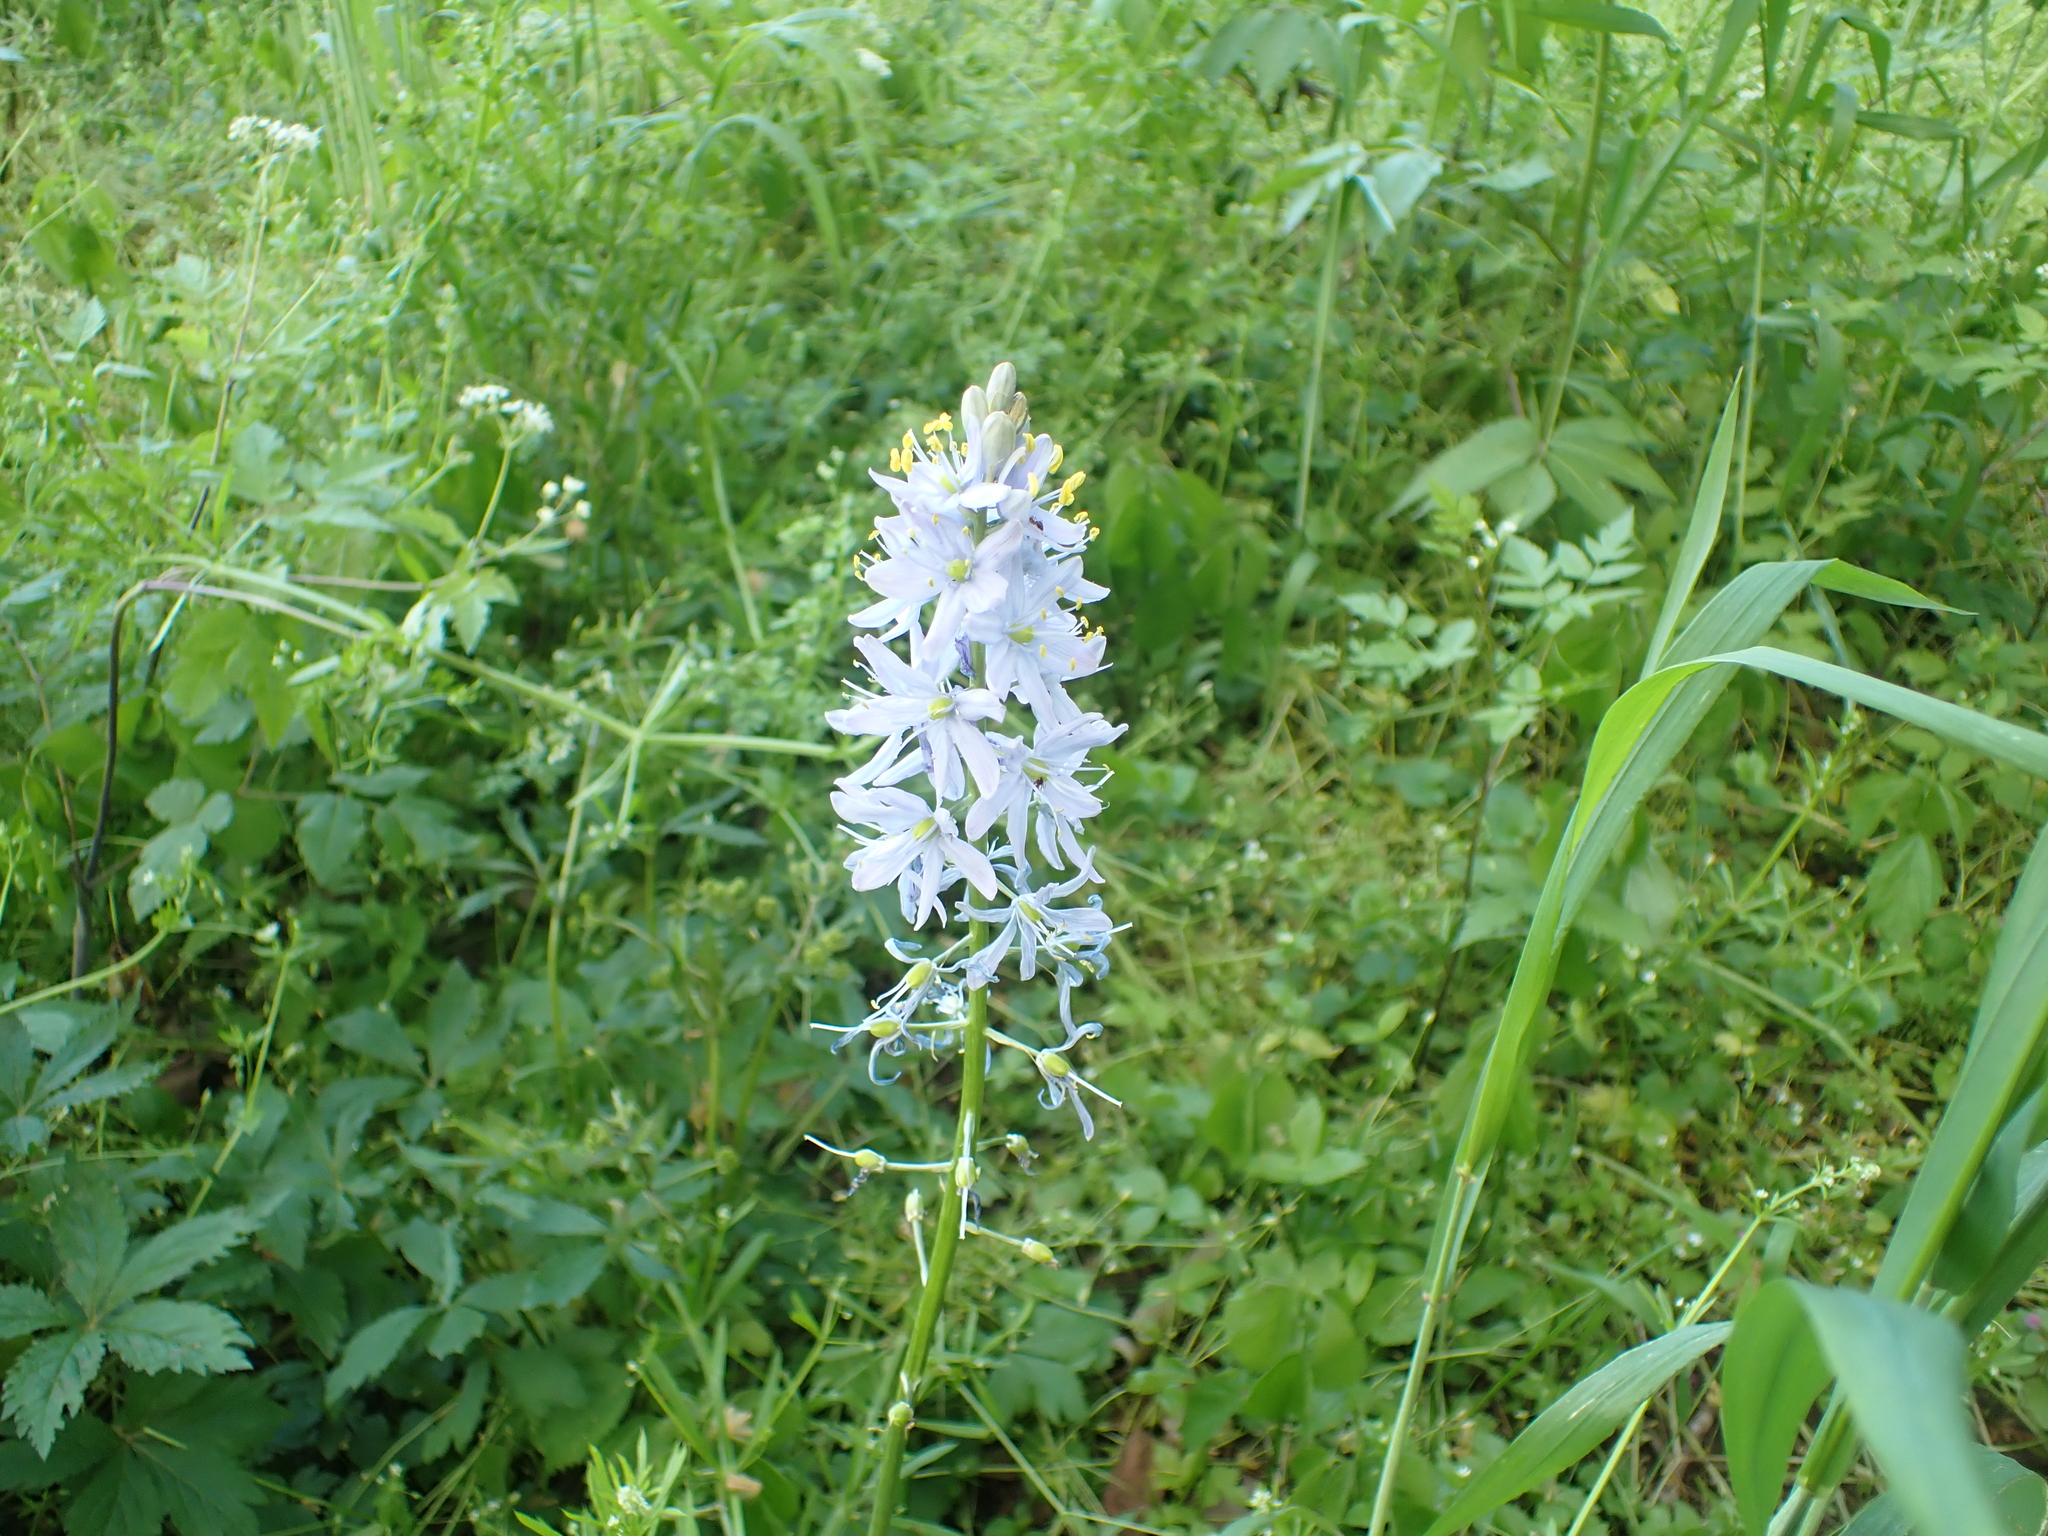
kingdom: Plantae
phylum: Tracheophyta
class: Liliopsida
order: Asparagales
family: Asparagaceae
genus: Camassia
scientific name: Camassia scilloides
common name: Wild hyacinth
